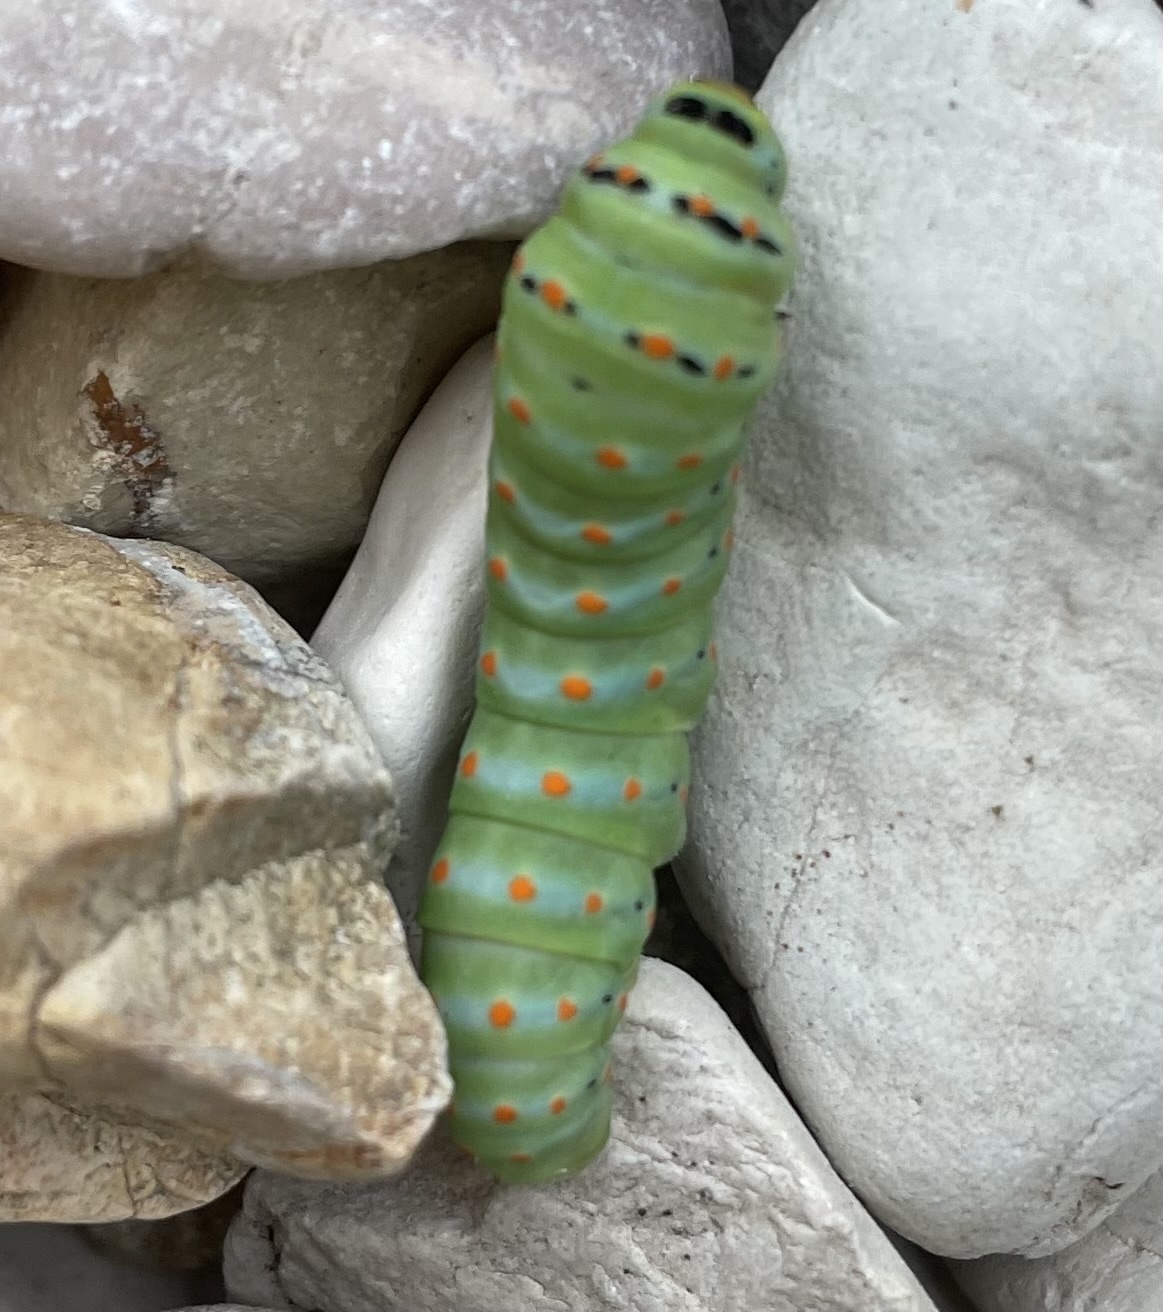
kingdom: Animalia
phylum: Arthropoda
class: Insecta
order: Lepidoptera
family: Papilionidae
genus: Papilio
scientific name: Papilio machaon
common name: Swallowtail
